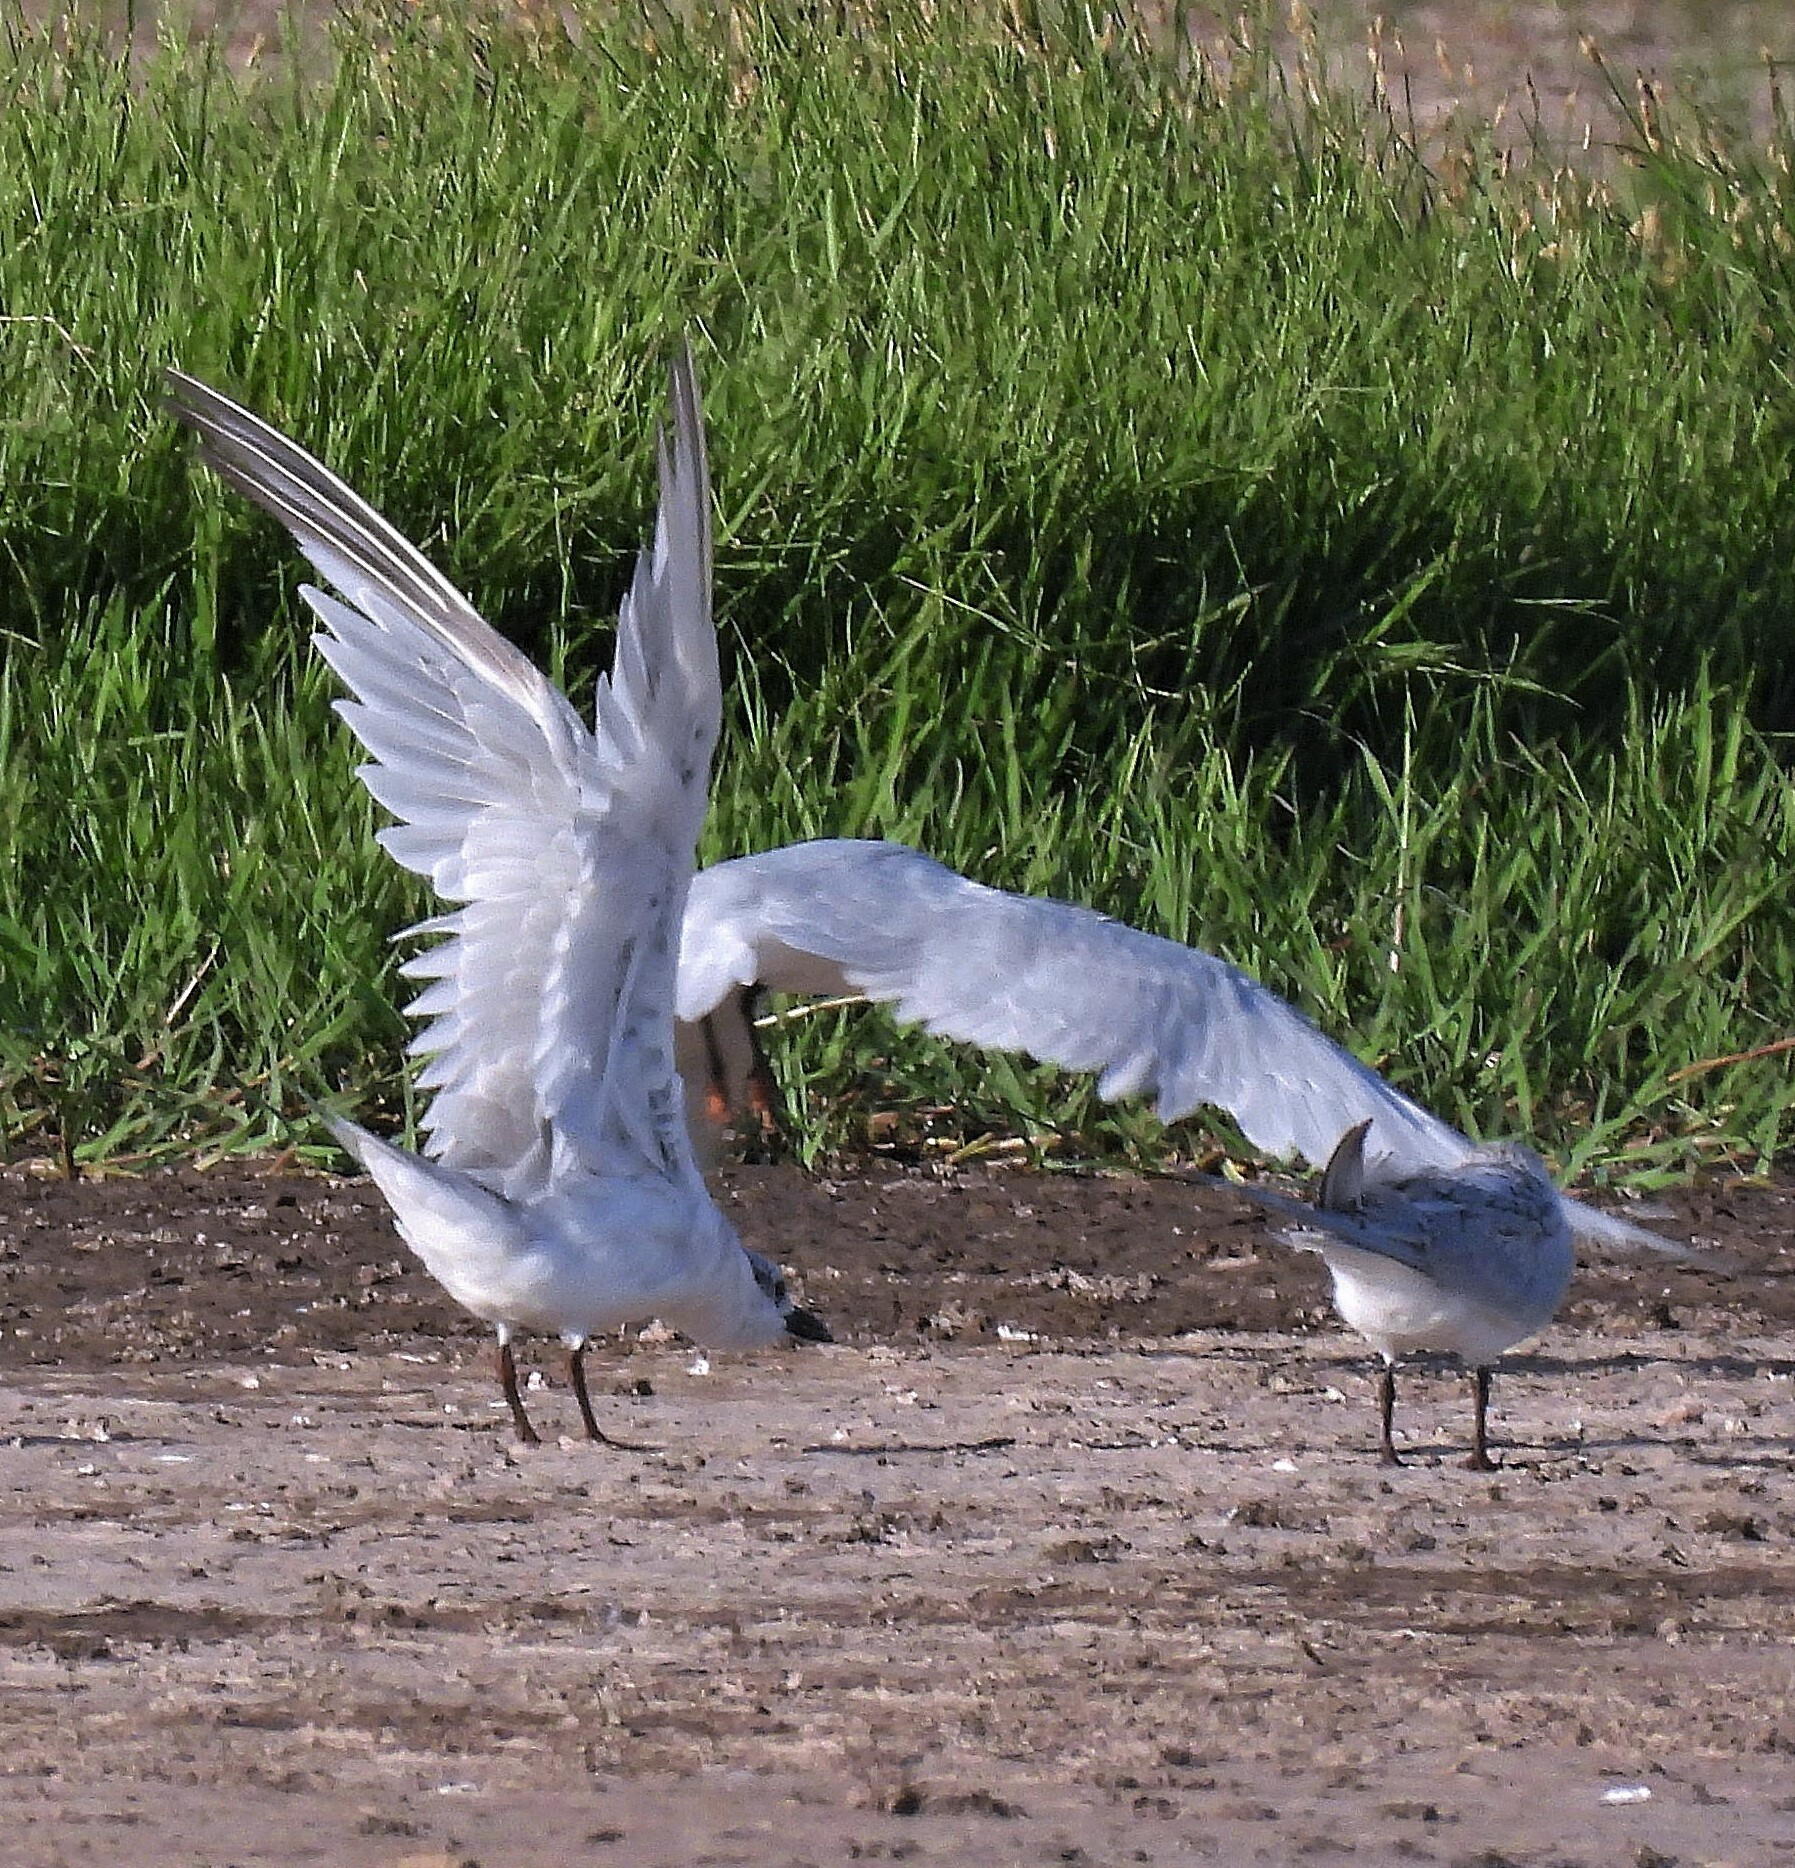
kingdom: Animalia
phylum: Chordata
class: Aves
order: Charadriiformes
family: Laridae
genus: Gelochelidon
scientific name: Gelochelidon nilotica
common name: Gull-billed tern
